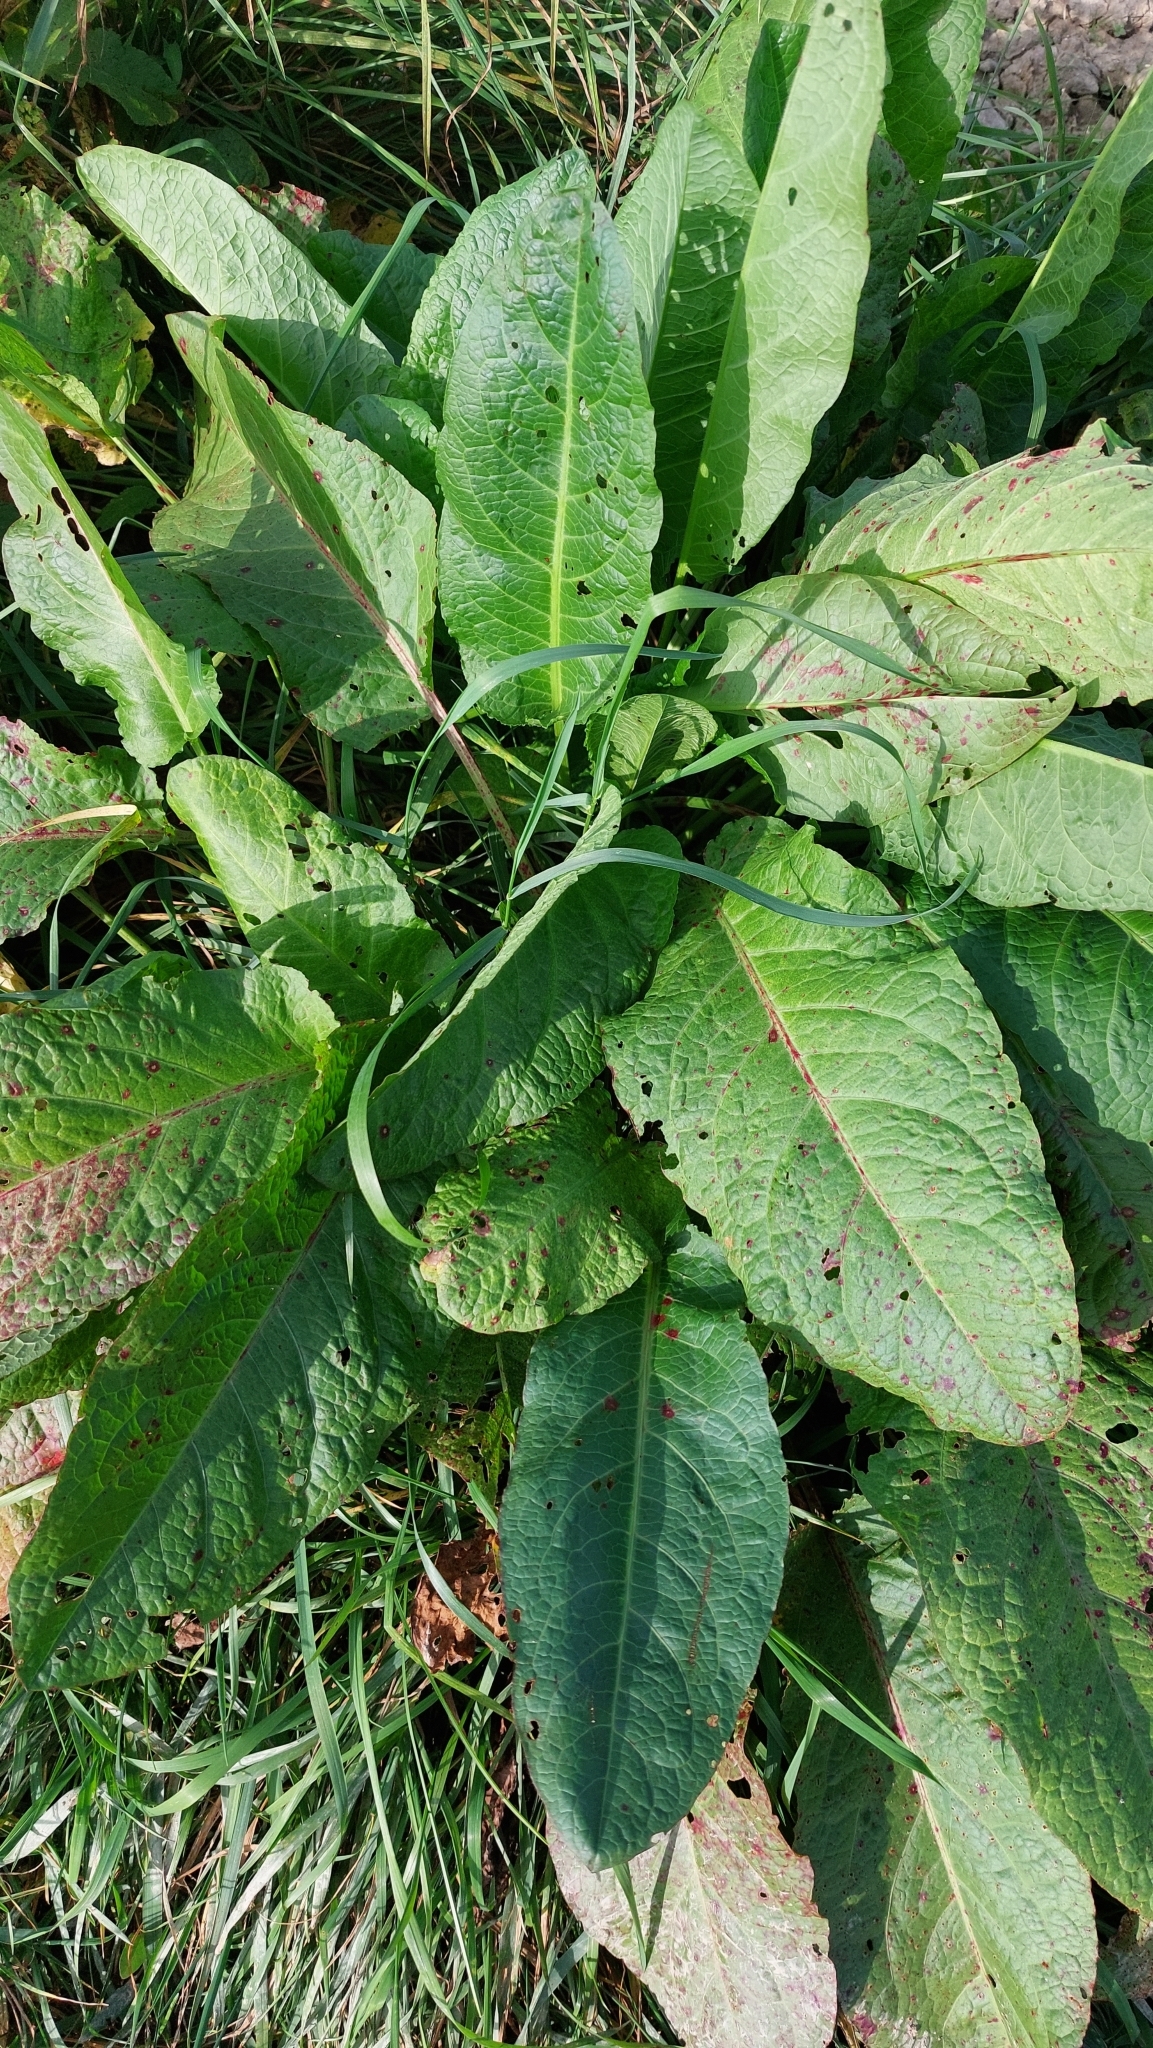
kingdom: Plantae
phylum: Tracheophyta
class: Magnoliopsida
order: Caryophyllales
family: Polygonaceae
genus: Rumex
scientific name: Rumex obtusifolius
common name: Bitter dock
